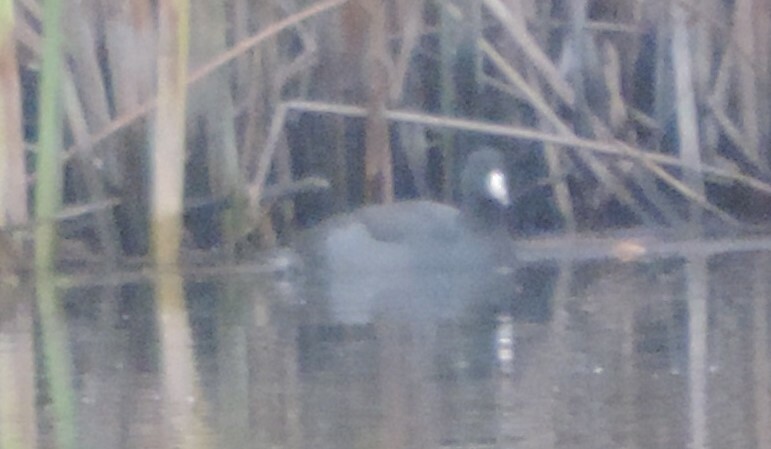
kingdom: Animalia
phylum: Chordata
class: Aves
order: Gruiformes
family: Rallidae
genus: Fulica
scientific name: Fulica americana
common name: American coot
